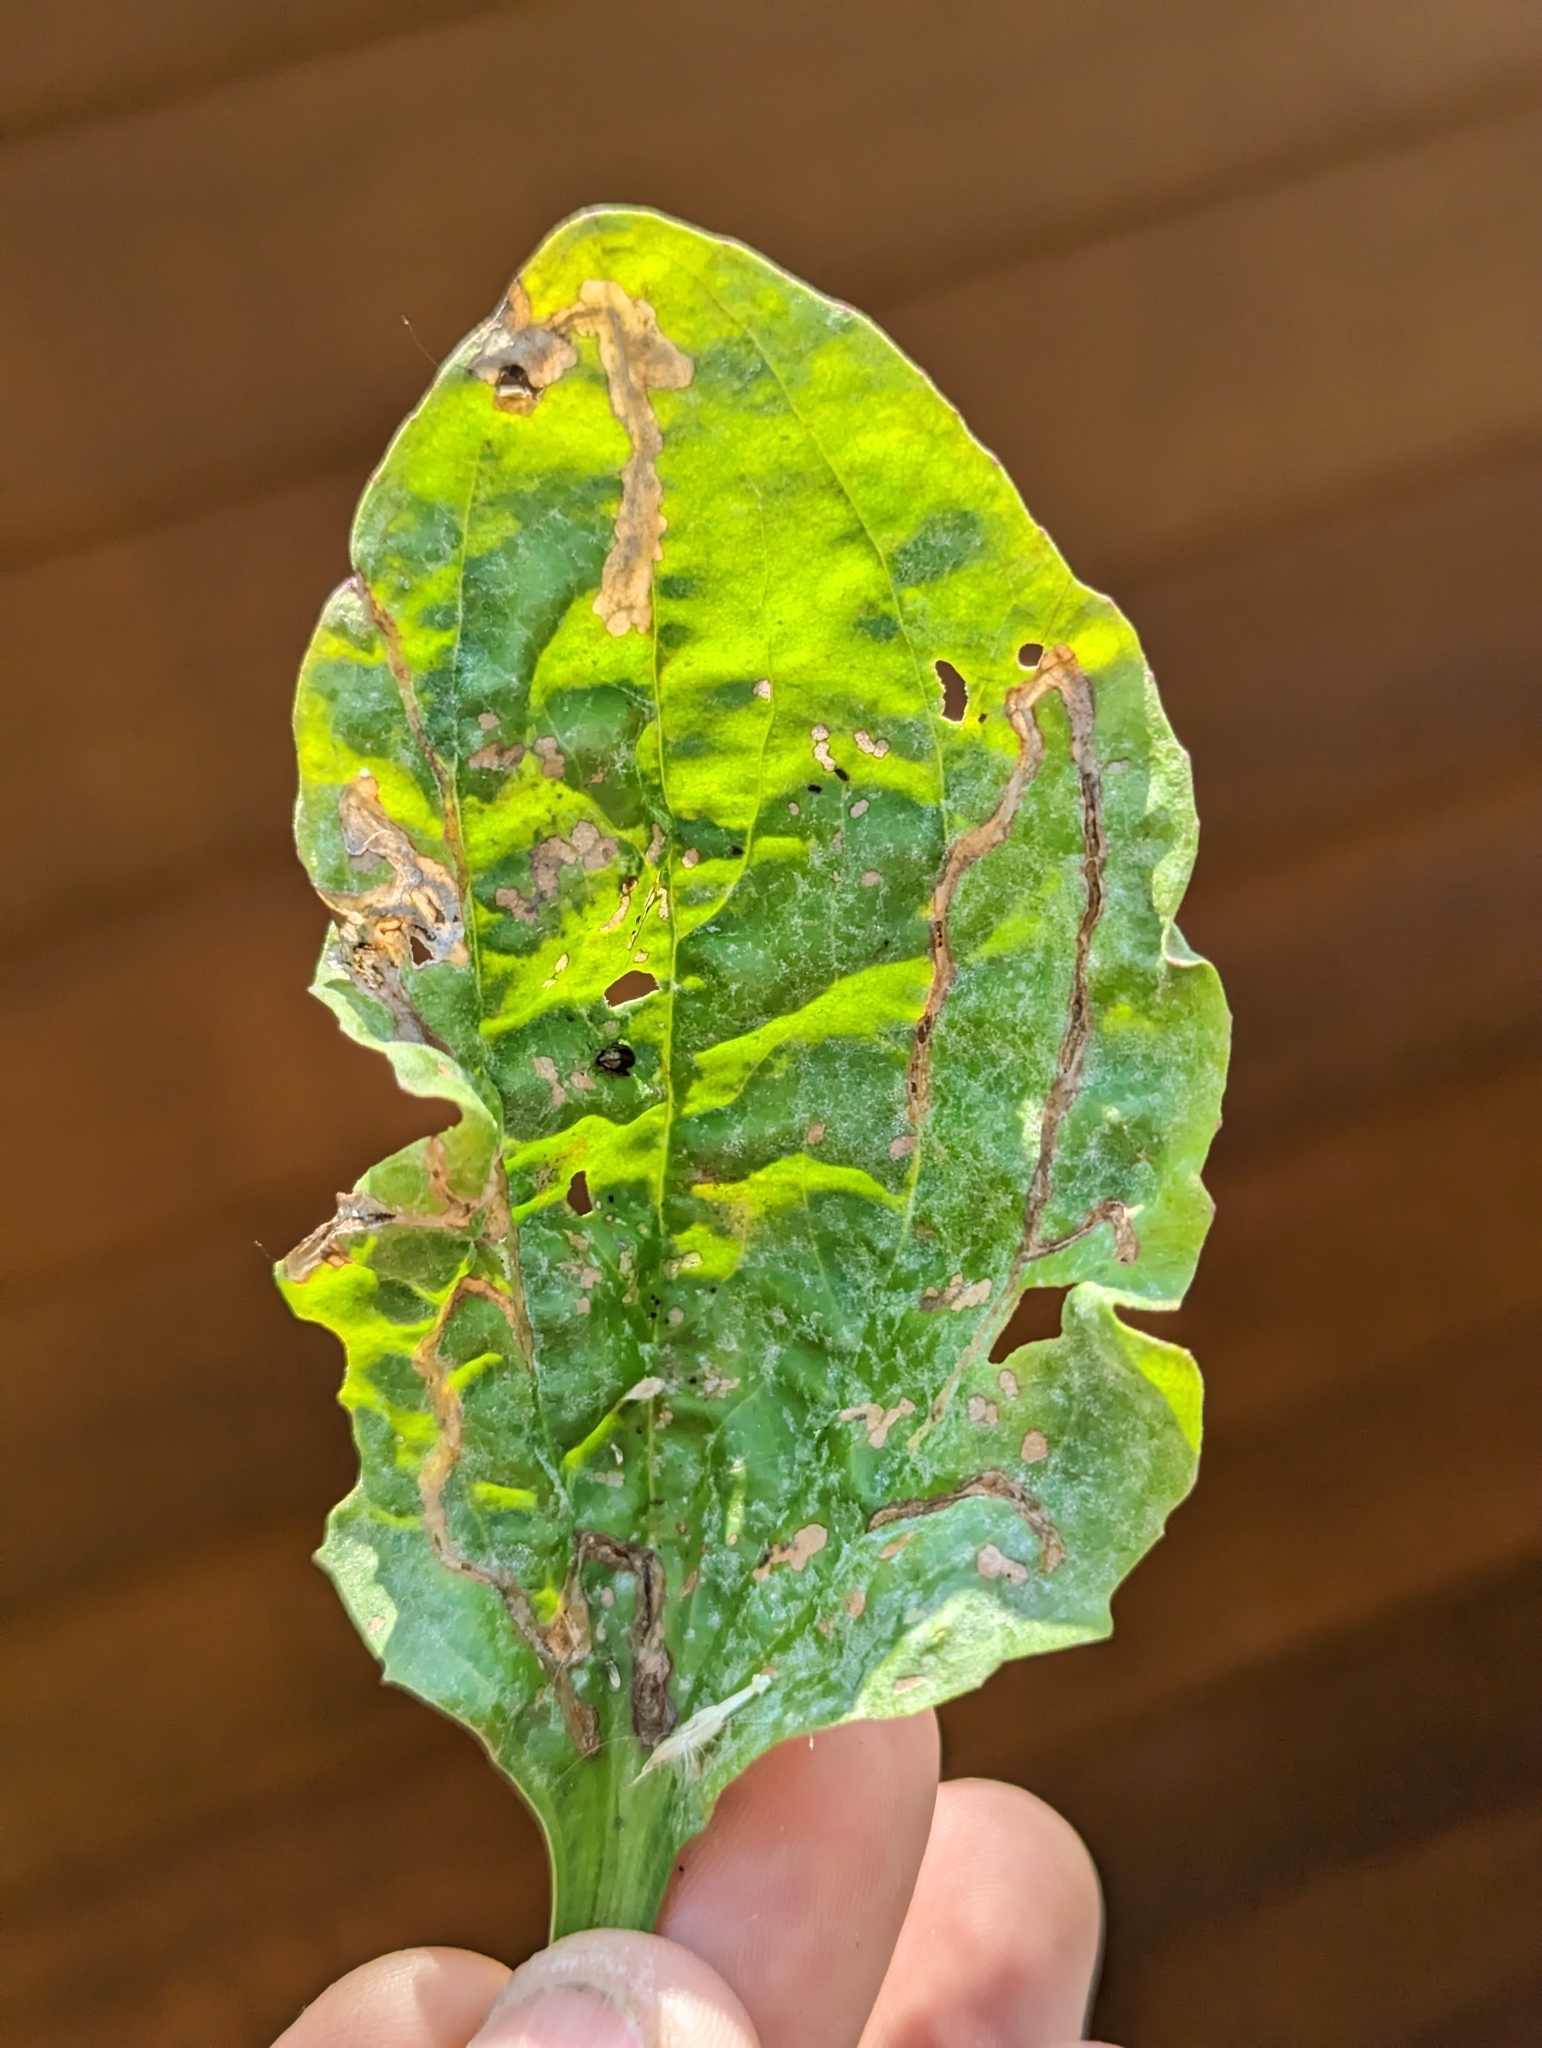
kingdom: Animalia
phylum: Arthropoda
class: Insecta
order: Coleoptera
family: Chrysomelidae
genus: Dibolia
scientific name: Dibolia borealis
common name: Northern plantain flea beetle
